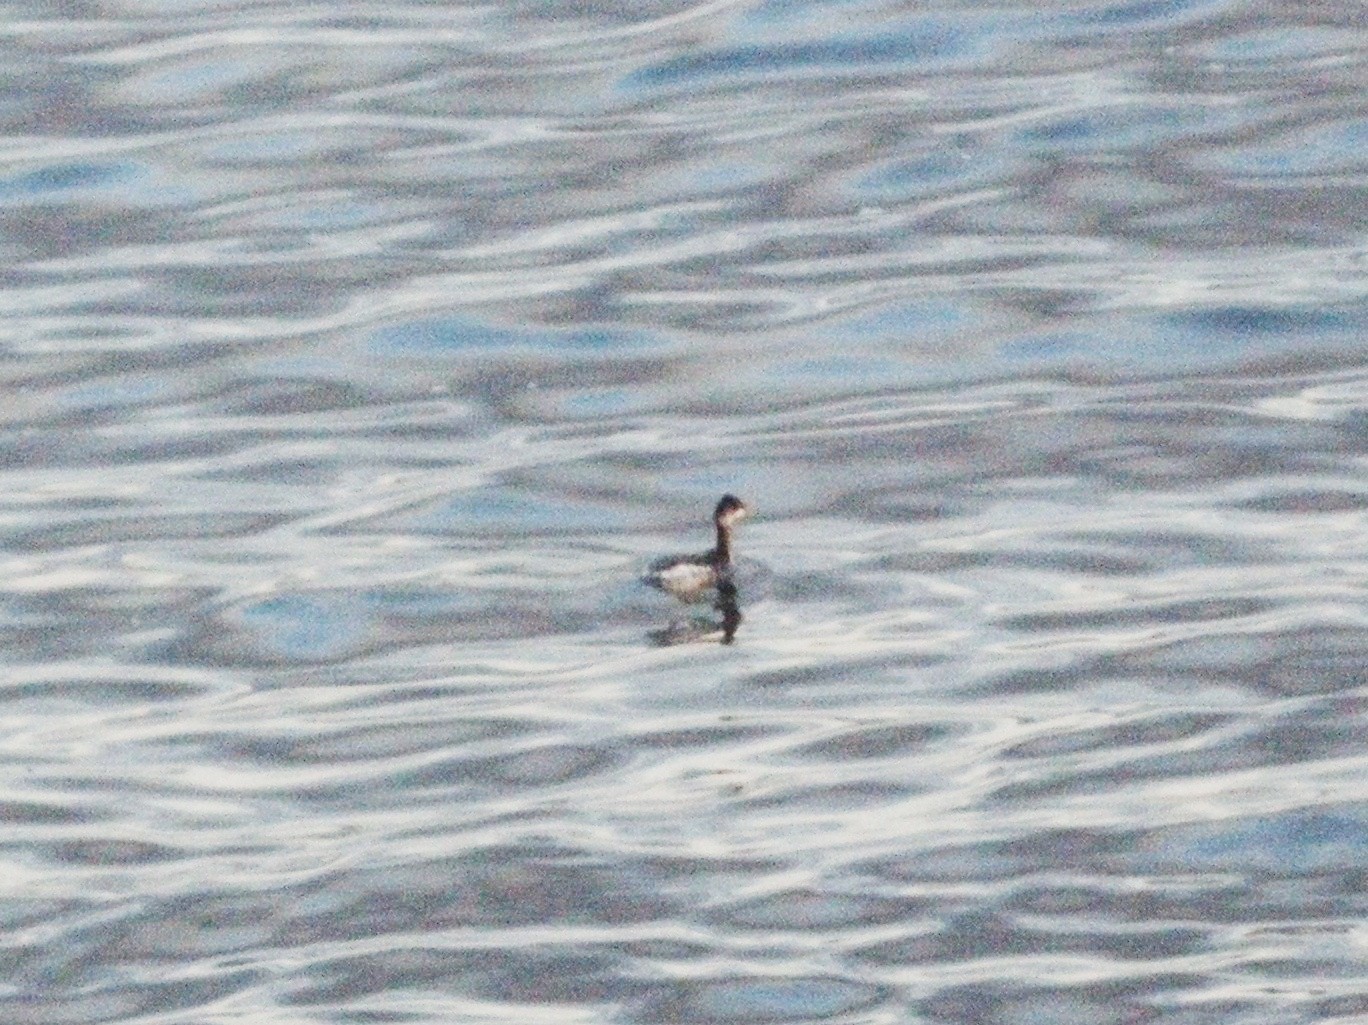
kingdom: Animalia
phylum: Chordata
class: Aves
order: Podicipediformes
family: Podicipedidae
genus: Podiceps
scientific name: Podiceps nigricollis
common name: Black-necked grebe
